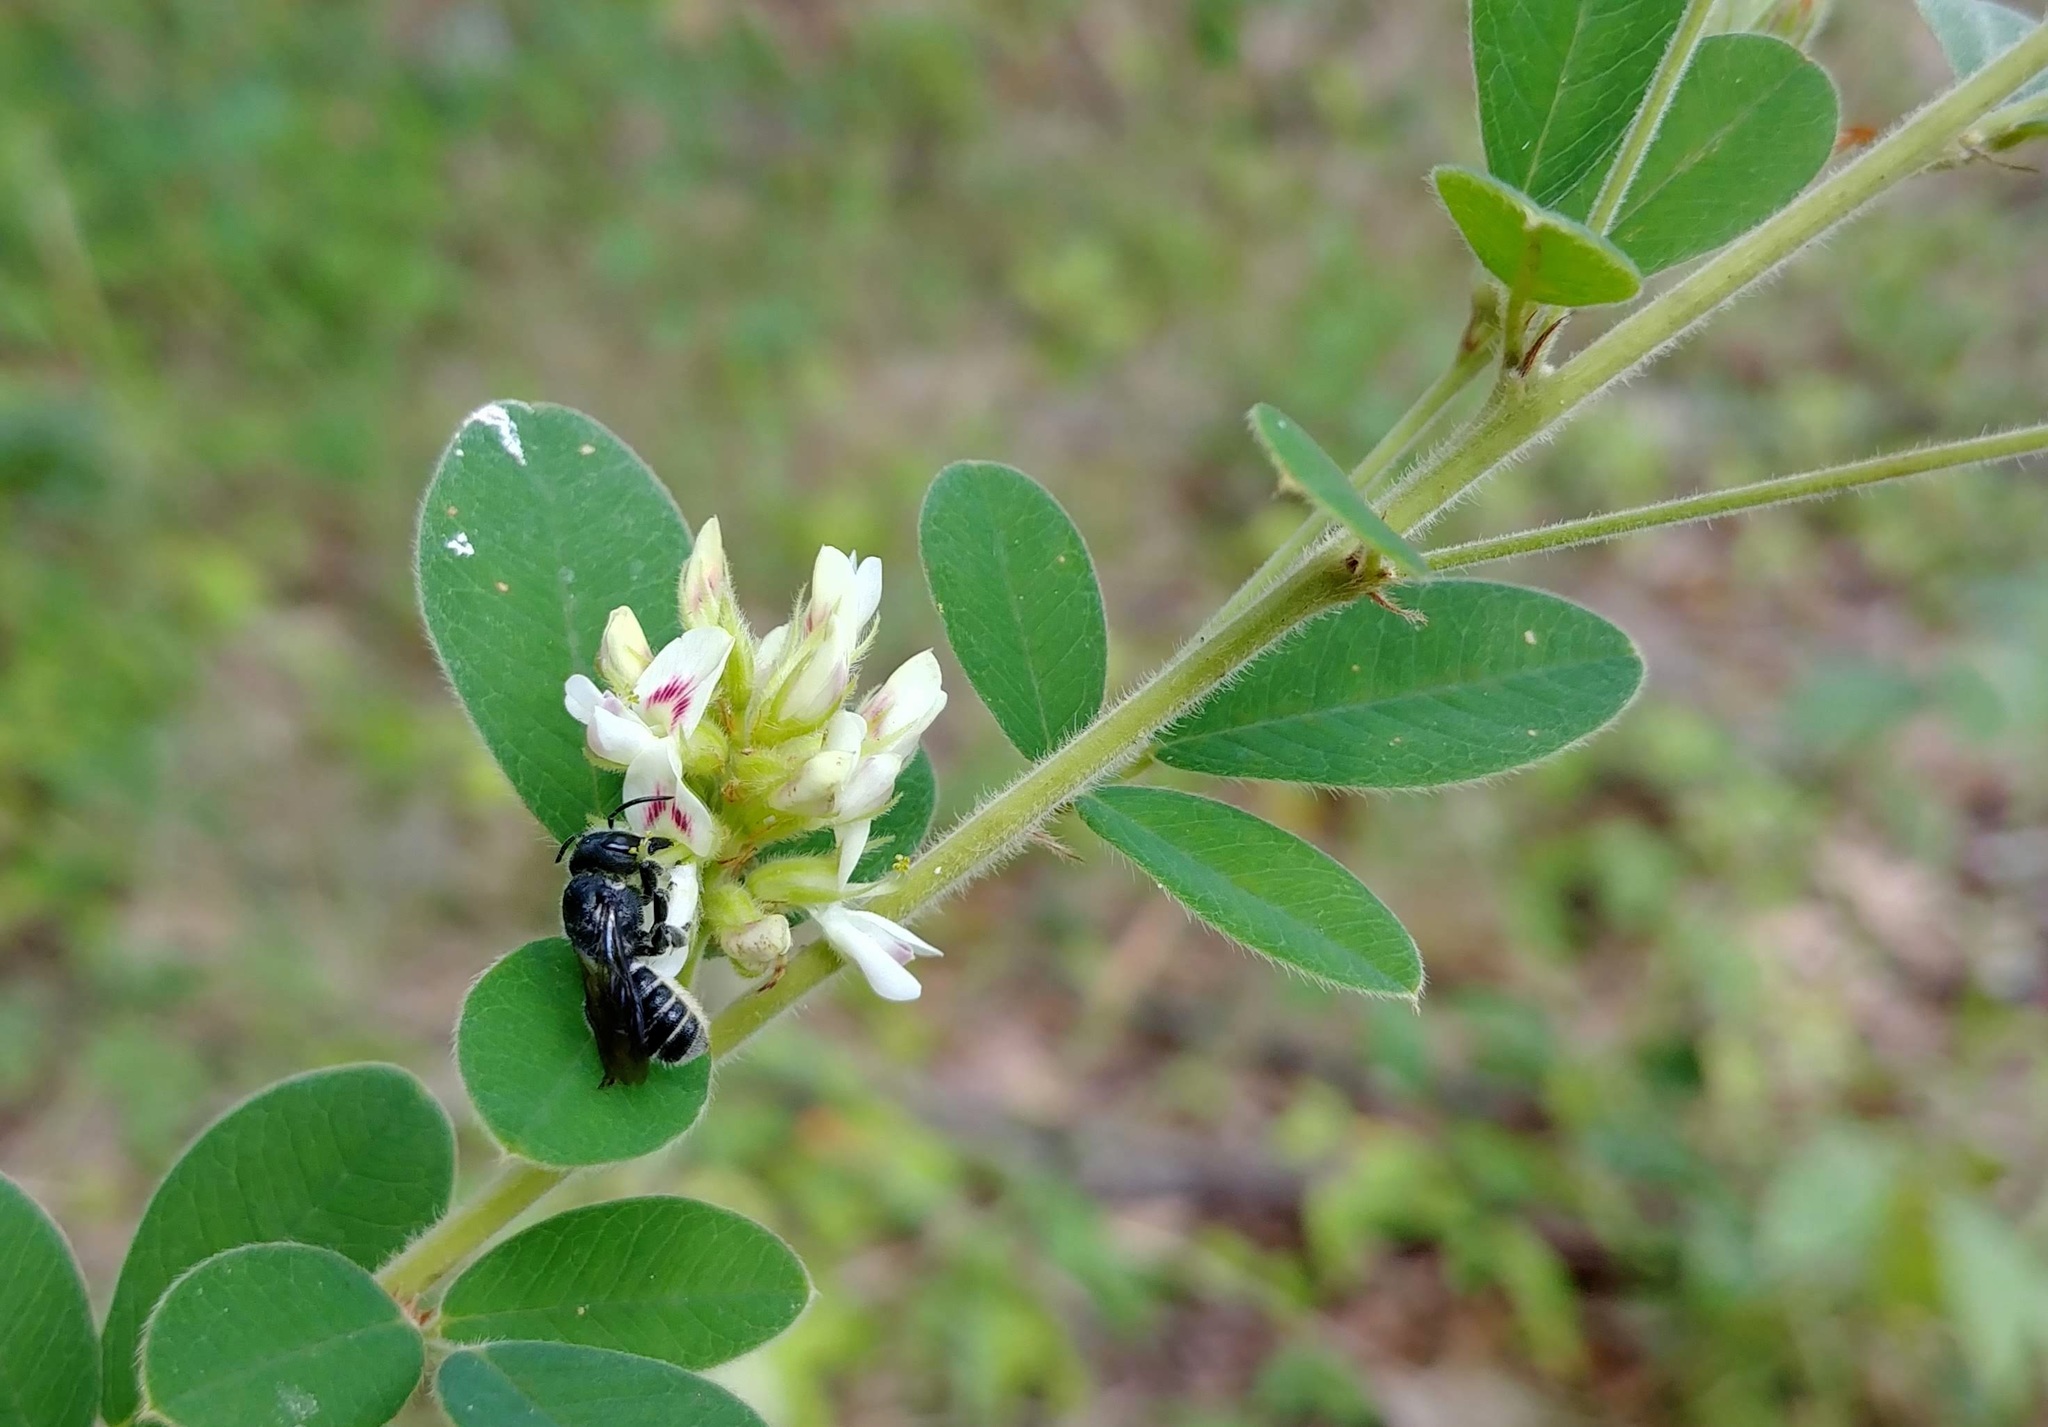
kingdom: Animalia
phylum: Arthropoda
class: Insecta
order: Hymenoptera
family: Megachilidae
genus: Megachile
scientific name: Megachile campanulae
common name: Bellflower resin bee
